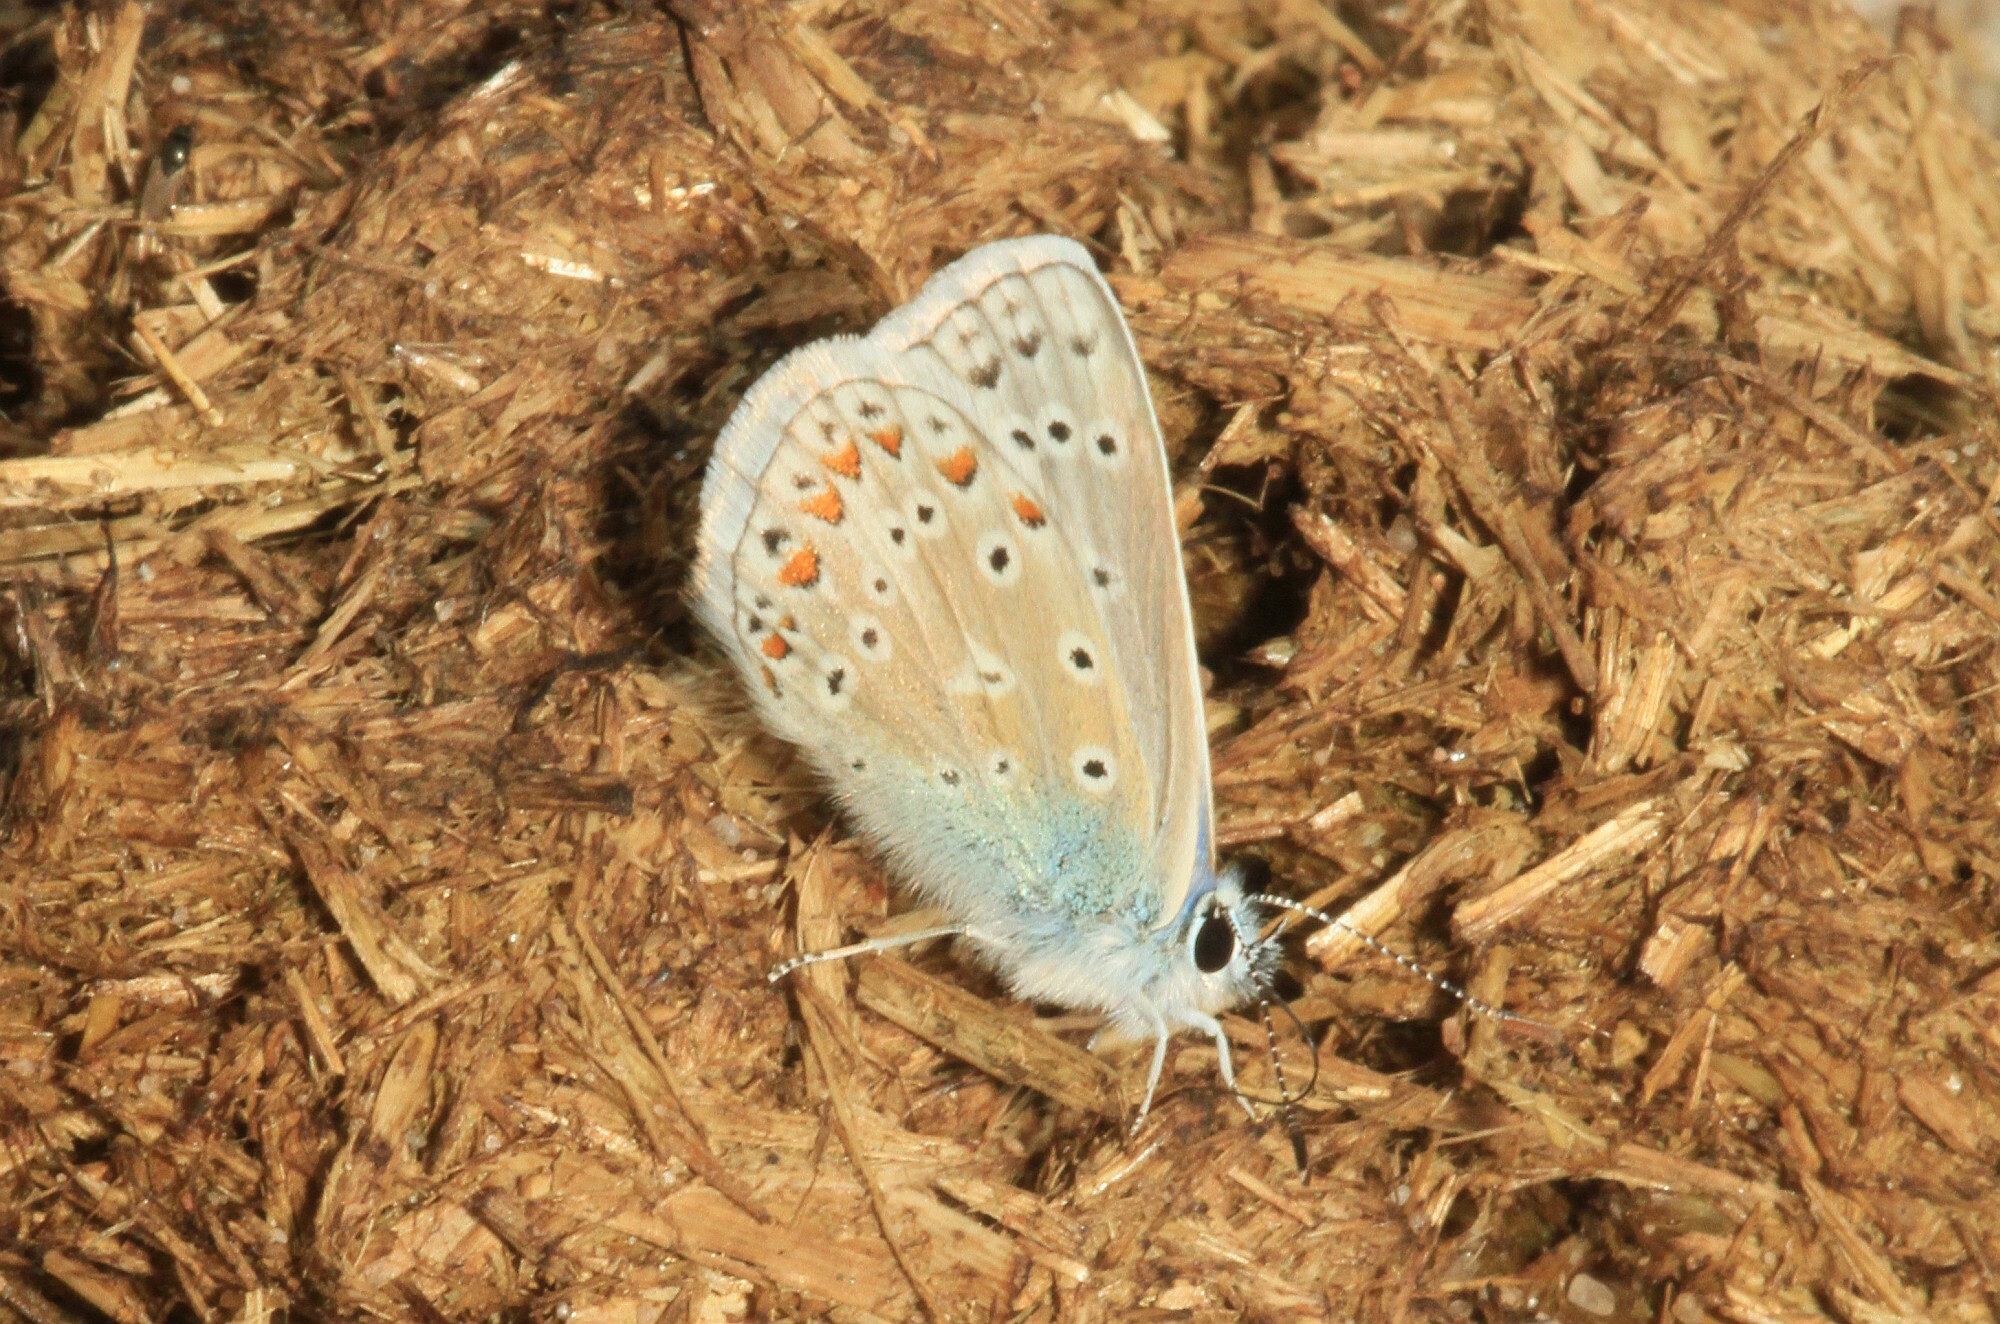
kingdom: Animalia
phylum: Arthropoda
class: Insecta
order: Lepidoptera
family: Lycaenidae
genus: Polyommatus
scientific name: Polyommatus icarus
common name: Common blue
